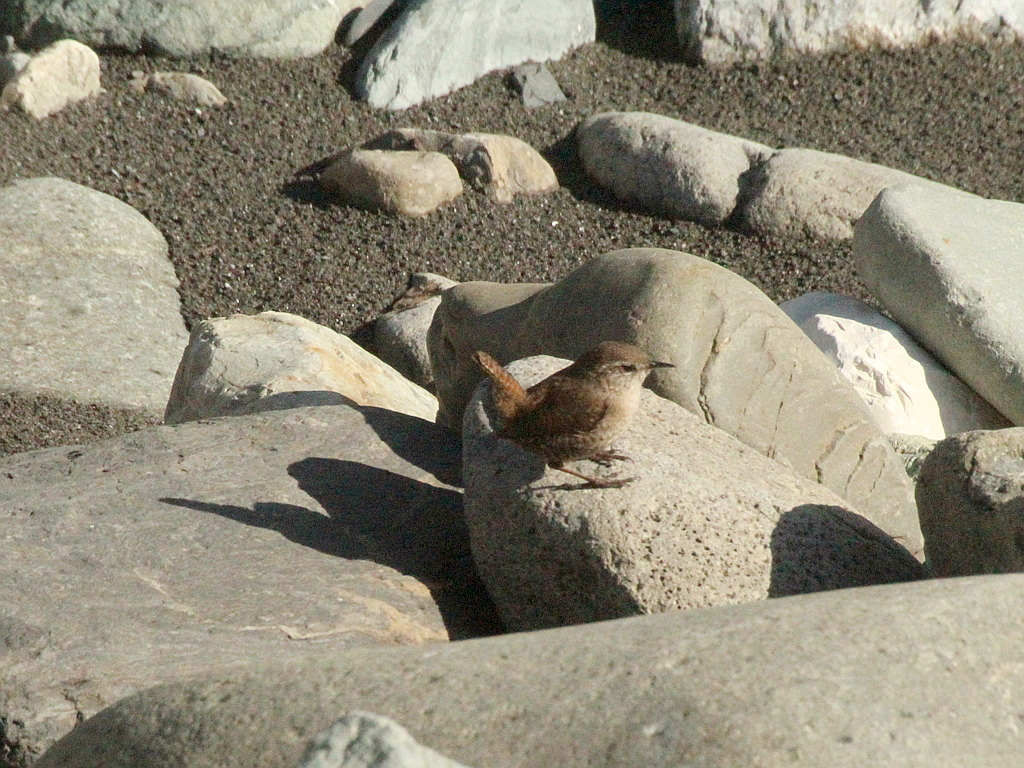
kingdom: Animalia
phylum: Chordata
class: Aves
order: Passeriformes
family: Troglodytidae
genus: Troglodytes
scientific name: Troglodytes troglodytes
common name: Eurasian wren
